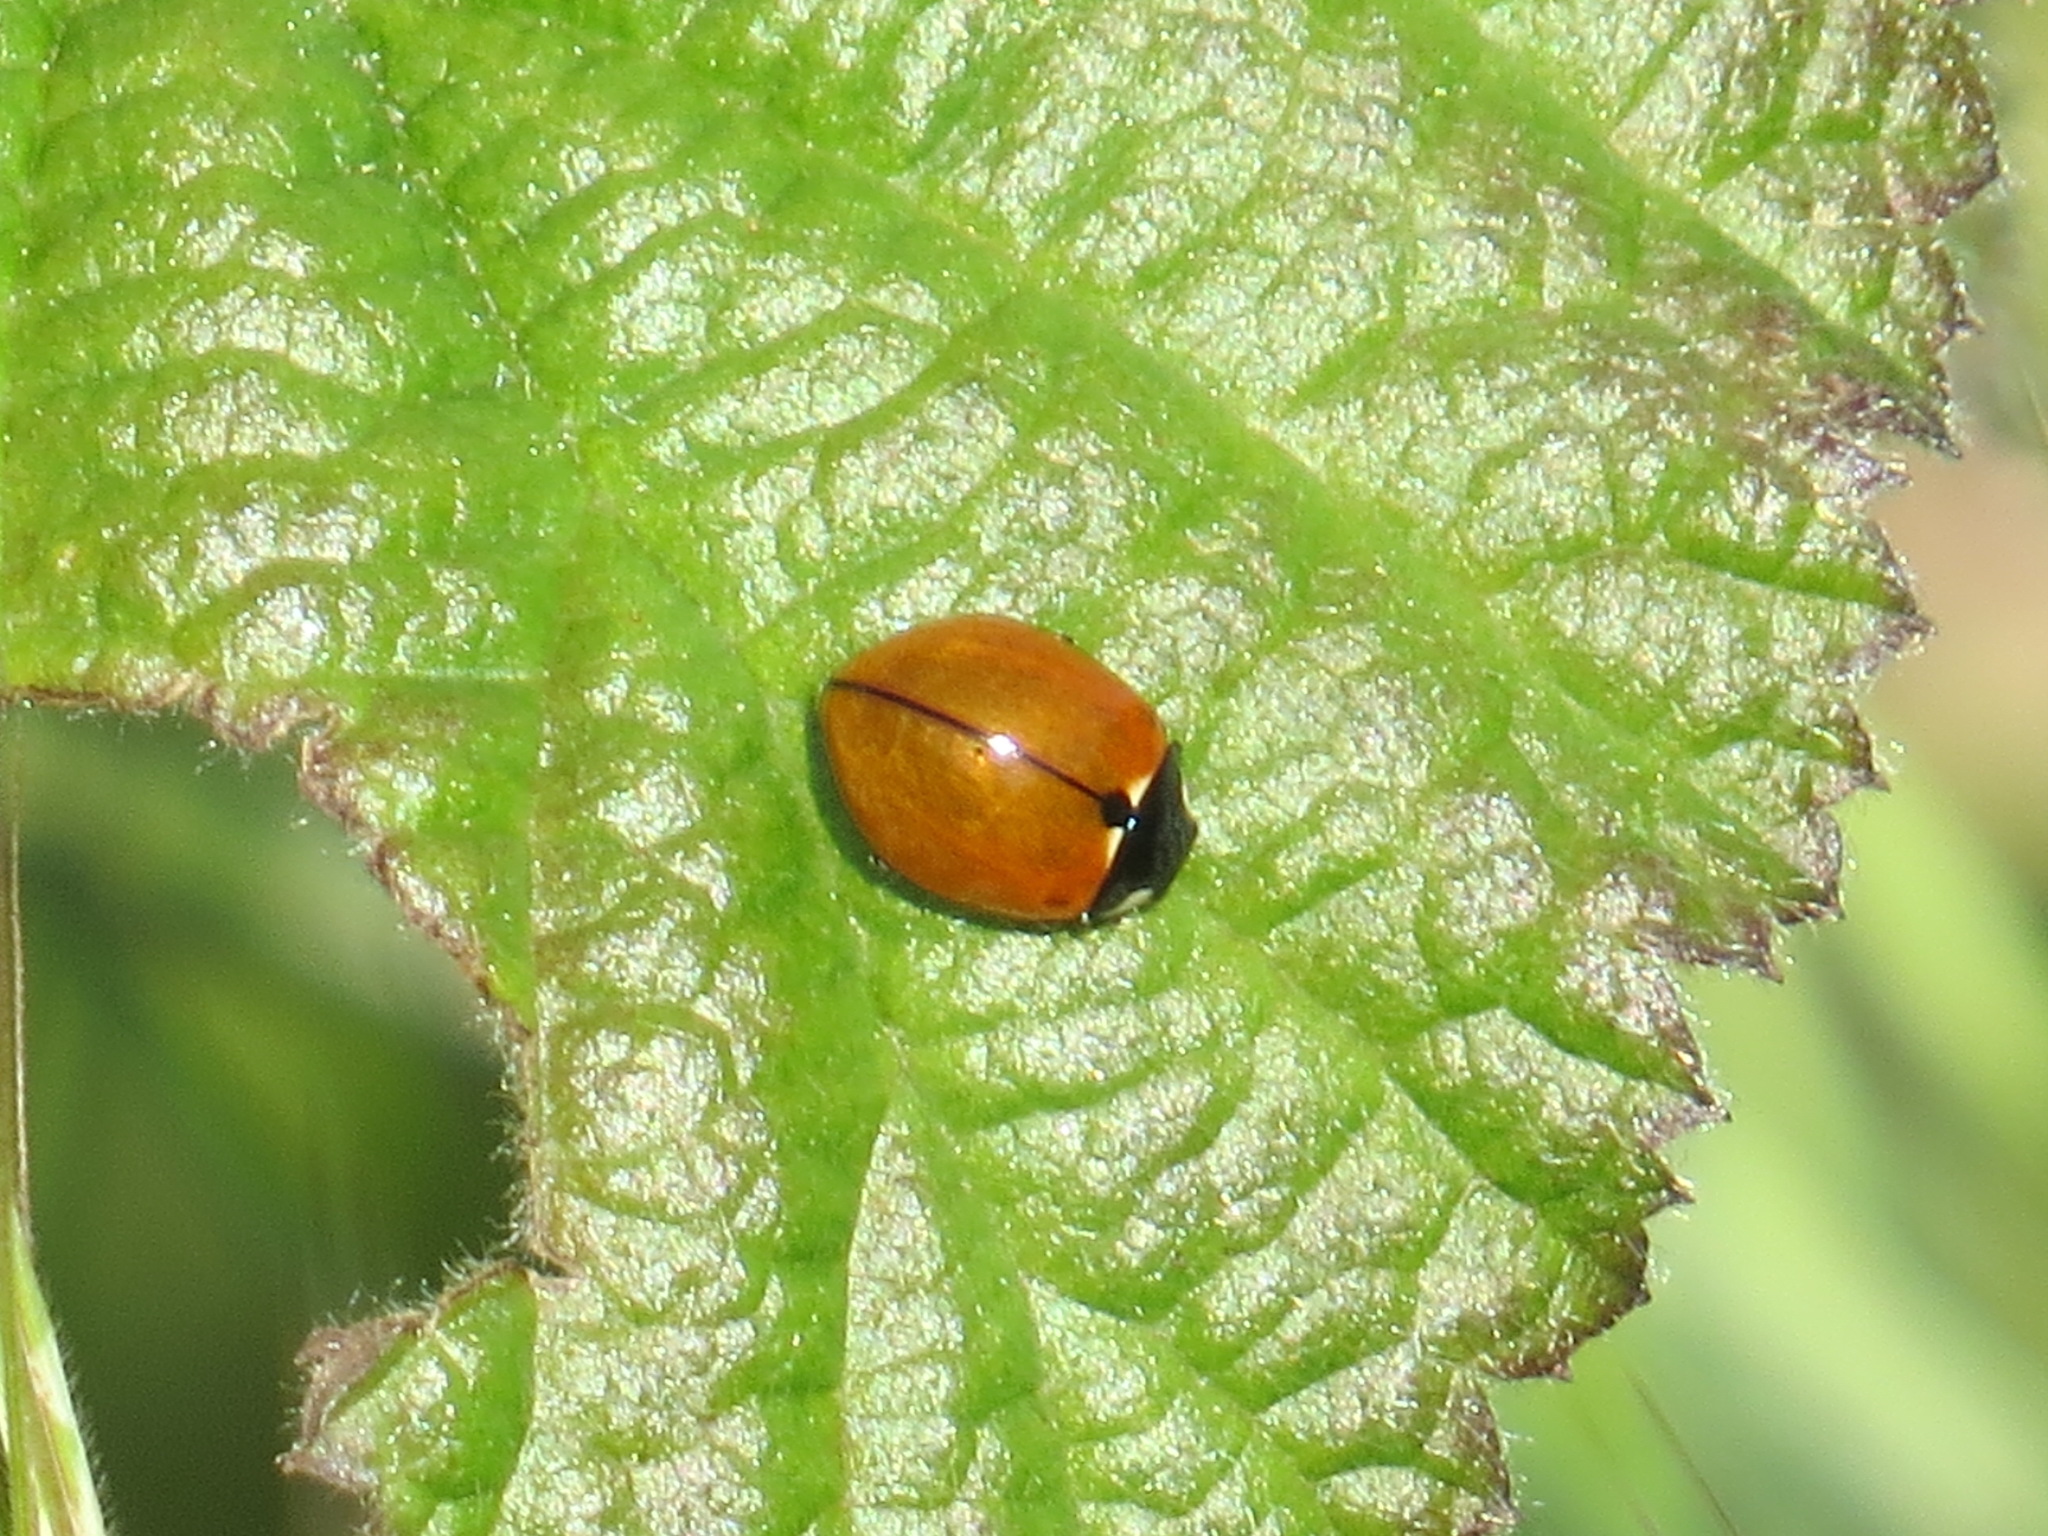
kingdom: Animalia
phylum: Arthropoda
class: Insecta
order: Coleoptera
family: Coccinellidae
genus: Coccinella
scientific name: Coccinella californica
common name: Lady beetle
